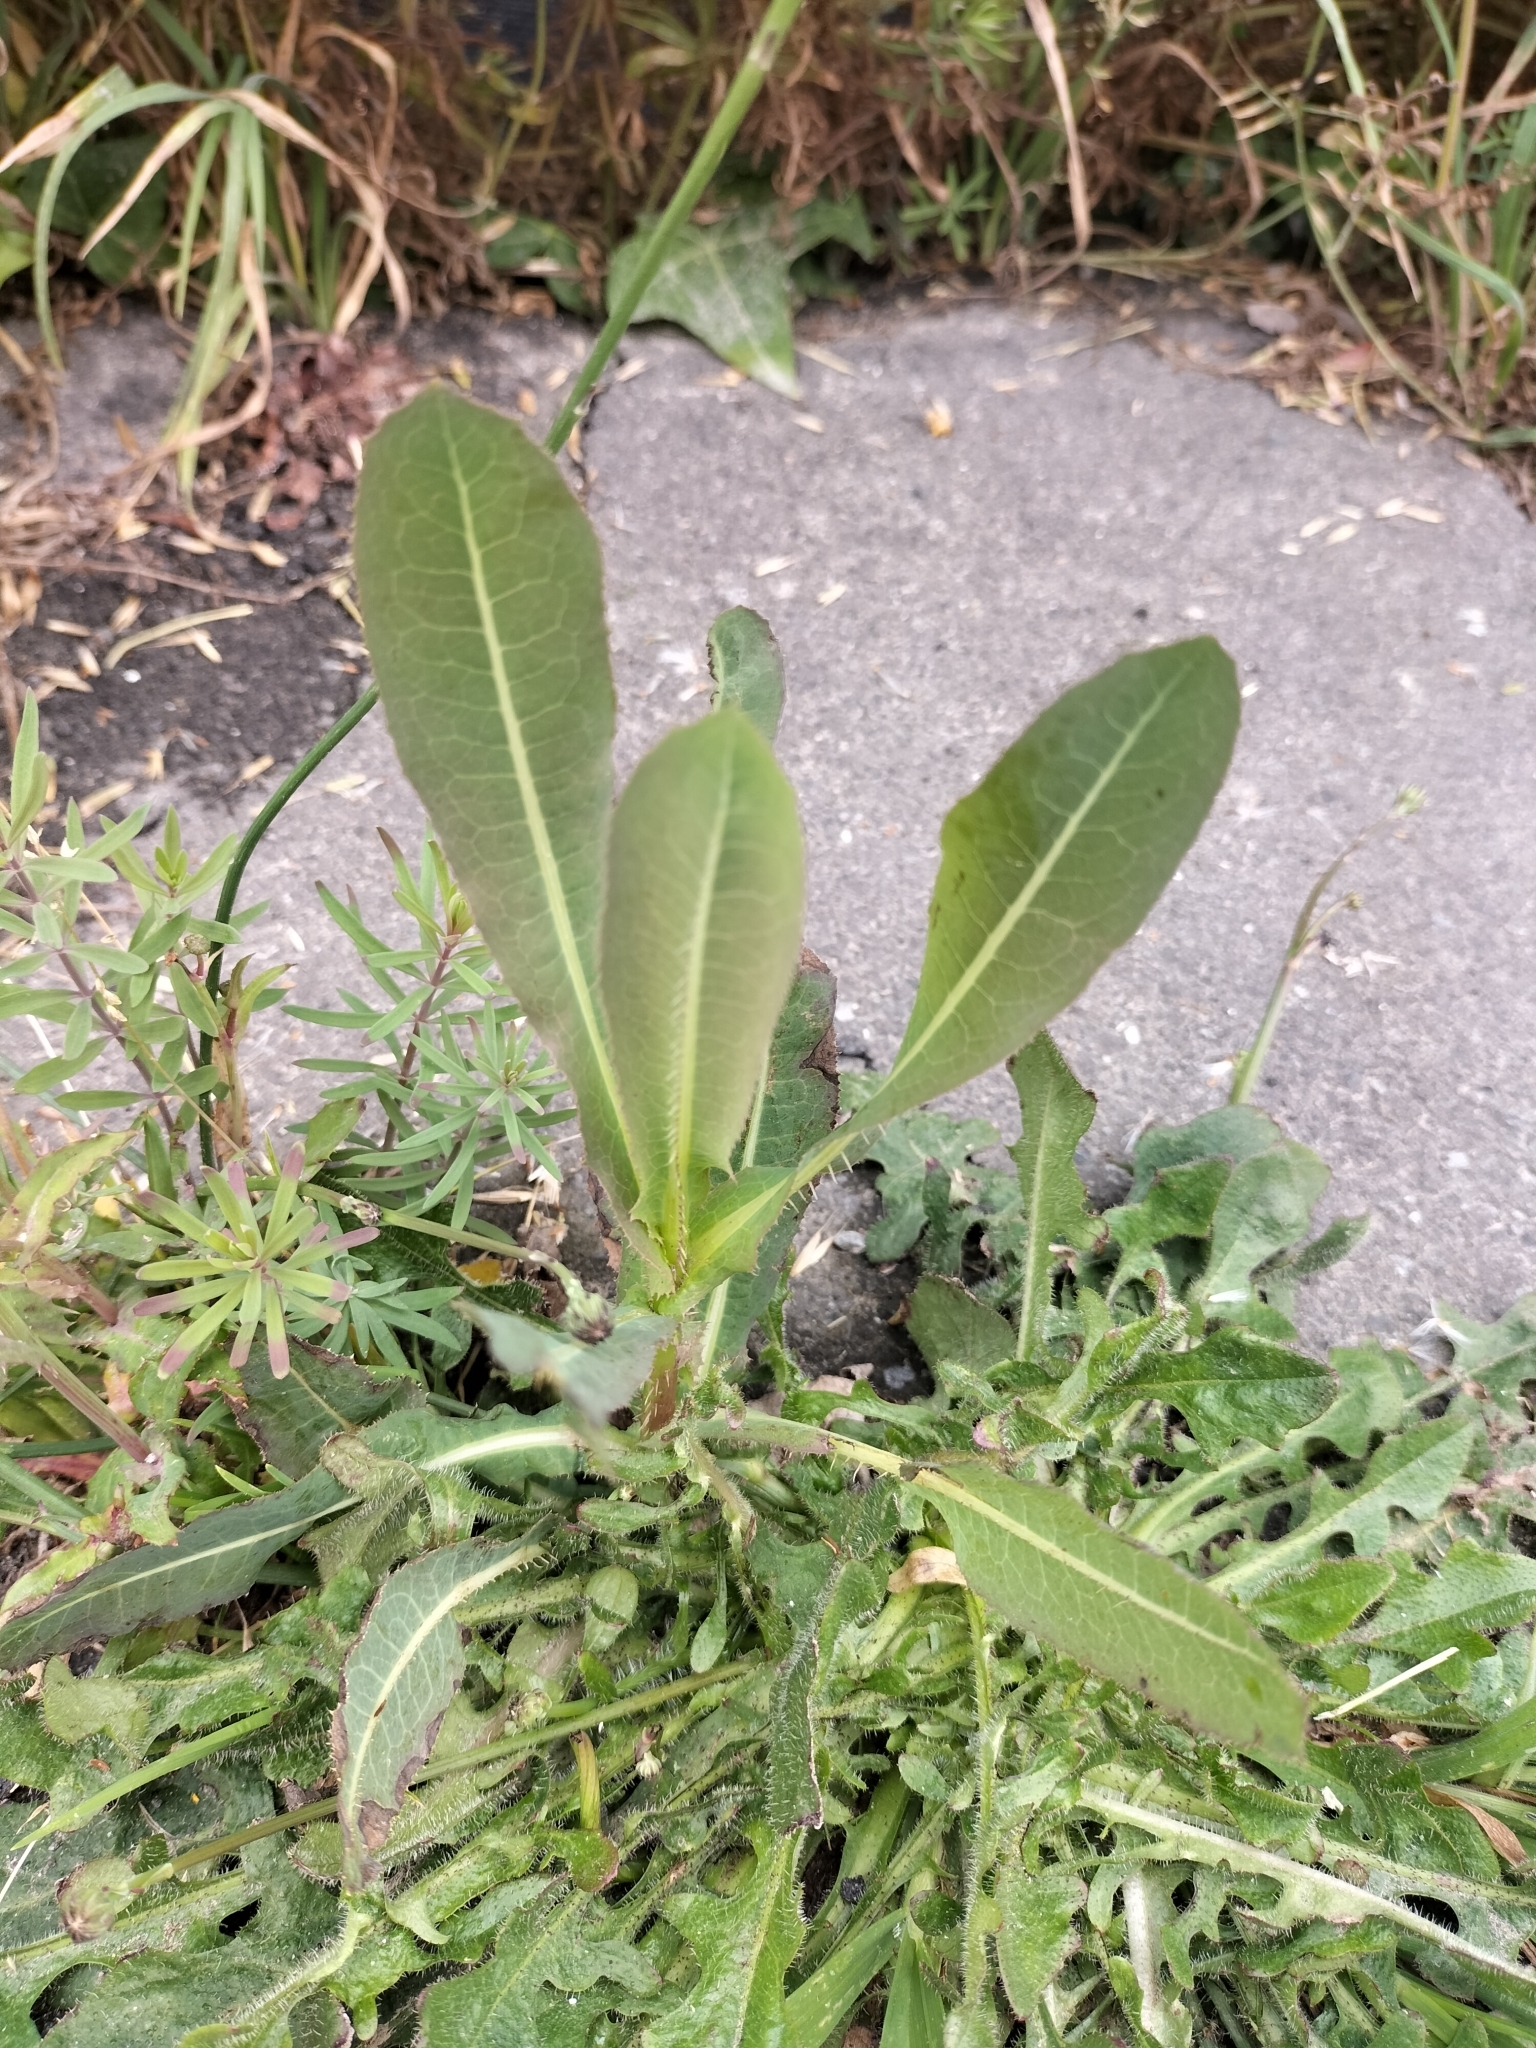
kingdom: Plantae
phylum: Tracheophyta
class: Magnoliopsida
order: Asterales
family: Asteraceae
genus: Lactuca
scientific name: Lactuca serriola
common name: Prickly lettuce
